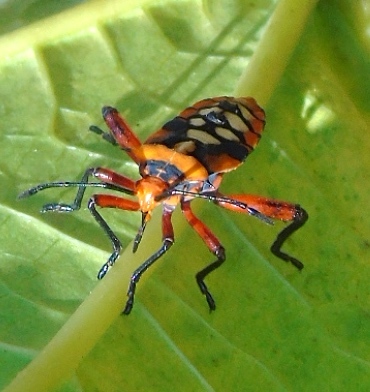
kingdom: Animalia
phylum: Arthropoda
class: Insecta
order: Hemiptera
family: Coreidae
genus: Sagotylus
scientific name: Sagotylus confluens
